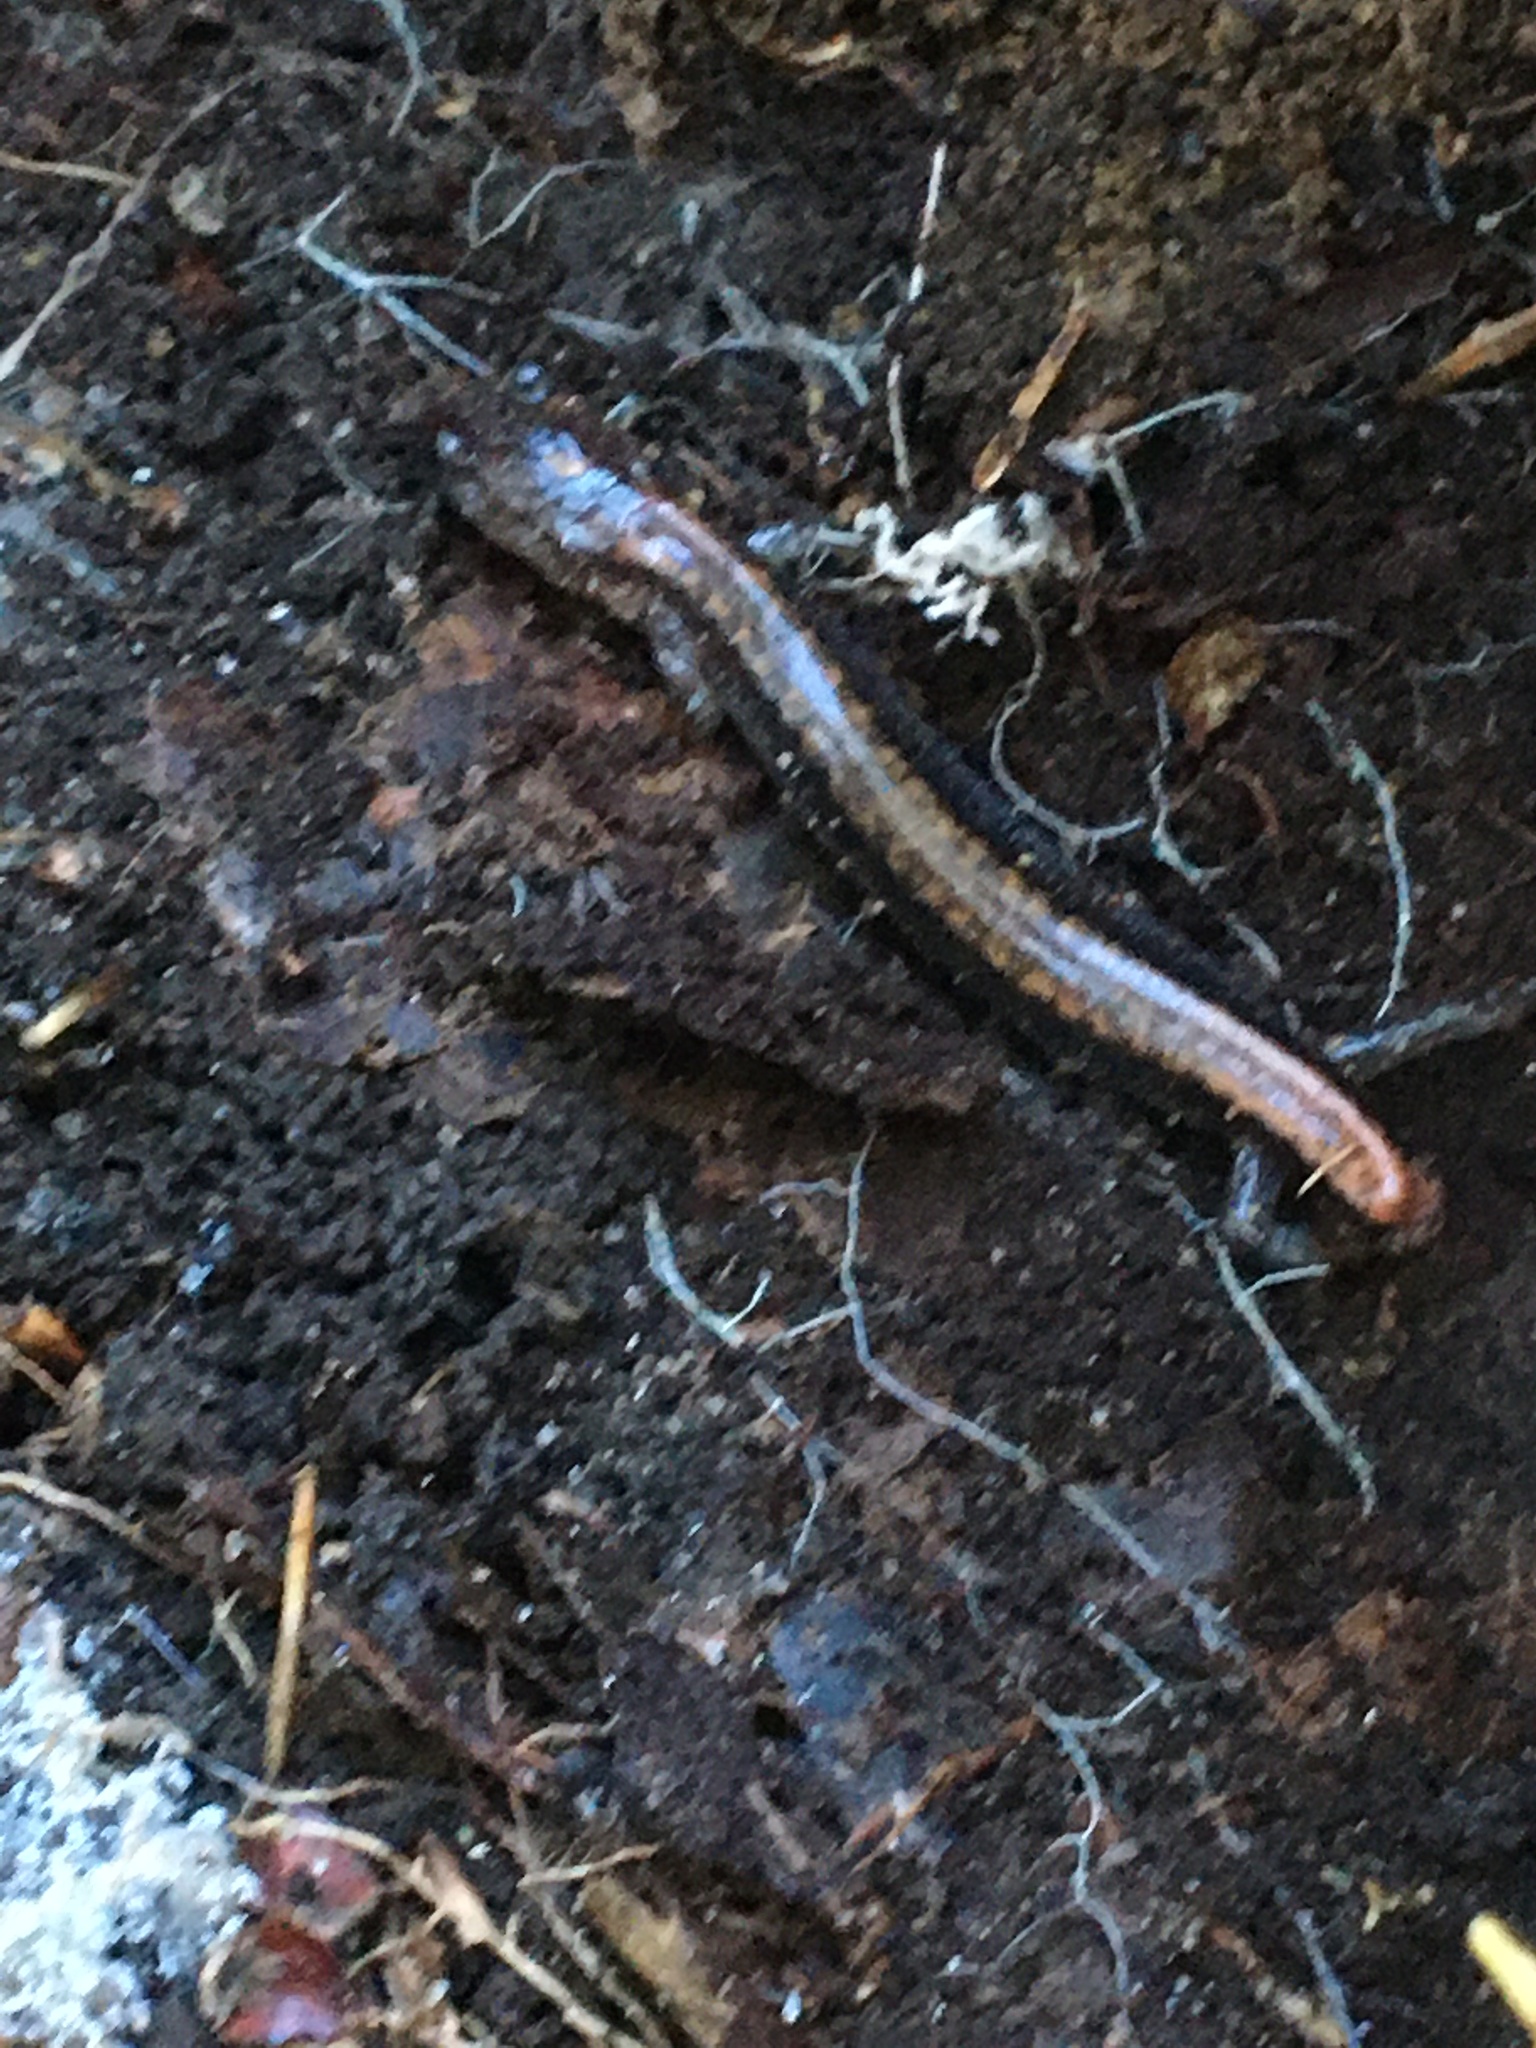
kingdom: Animalia
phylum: Chordata
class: Amphibia
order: Caudata
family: Plethodontidae
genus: Plethodon
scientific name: Plethodon cinereus
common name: Redback salamander
